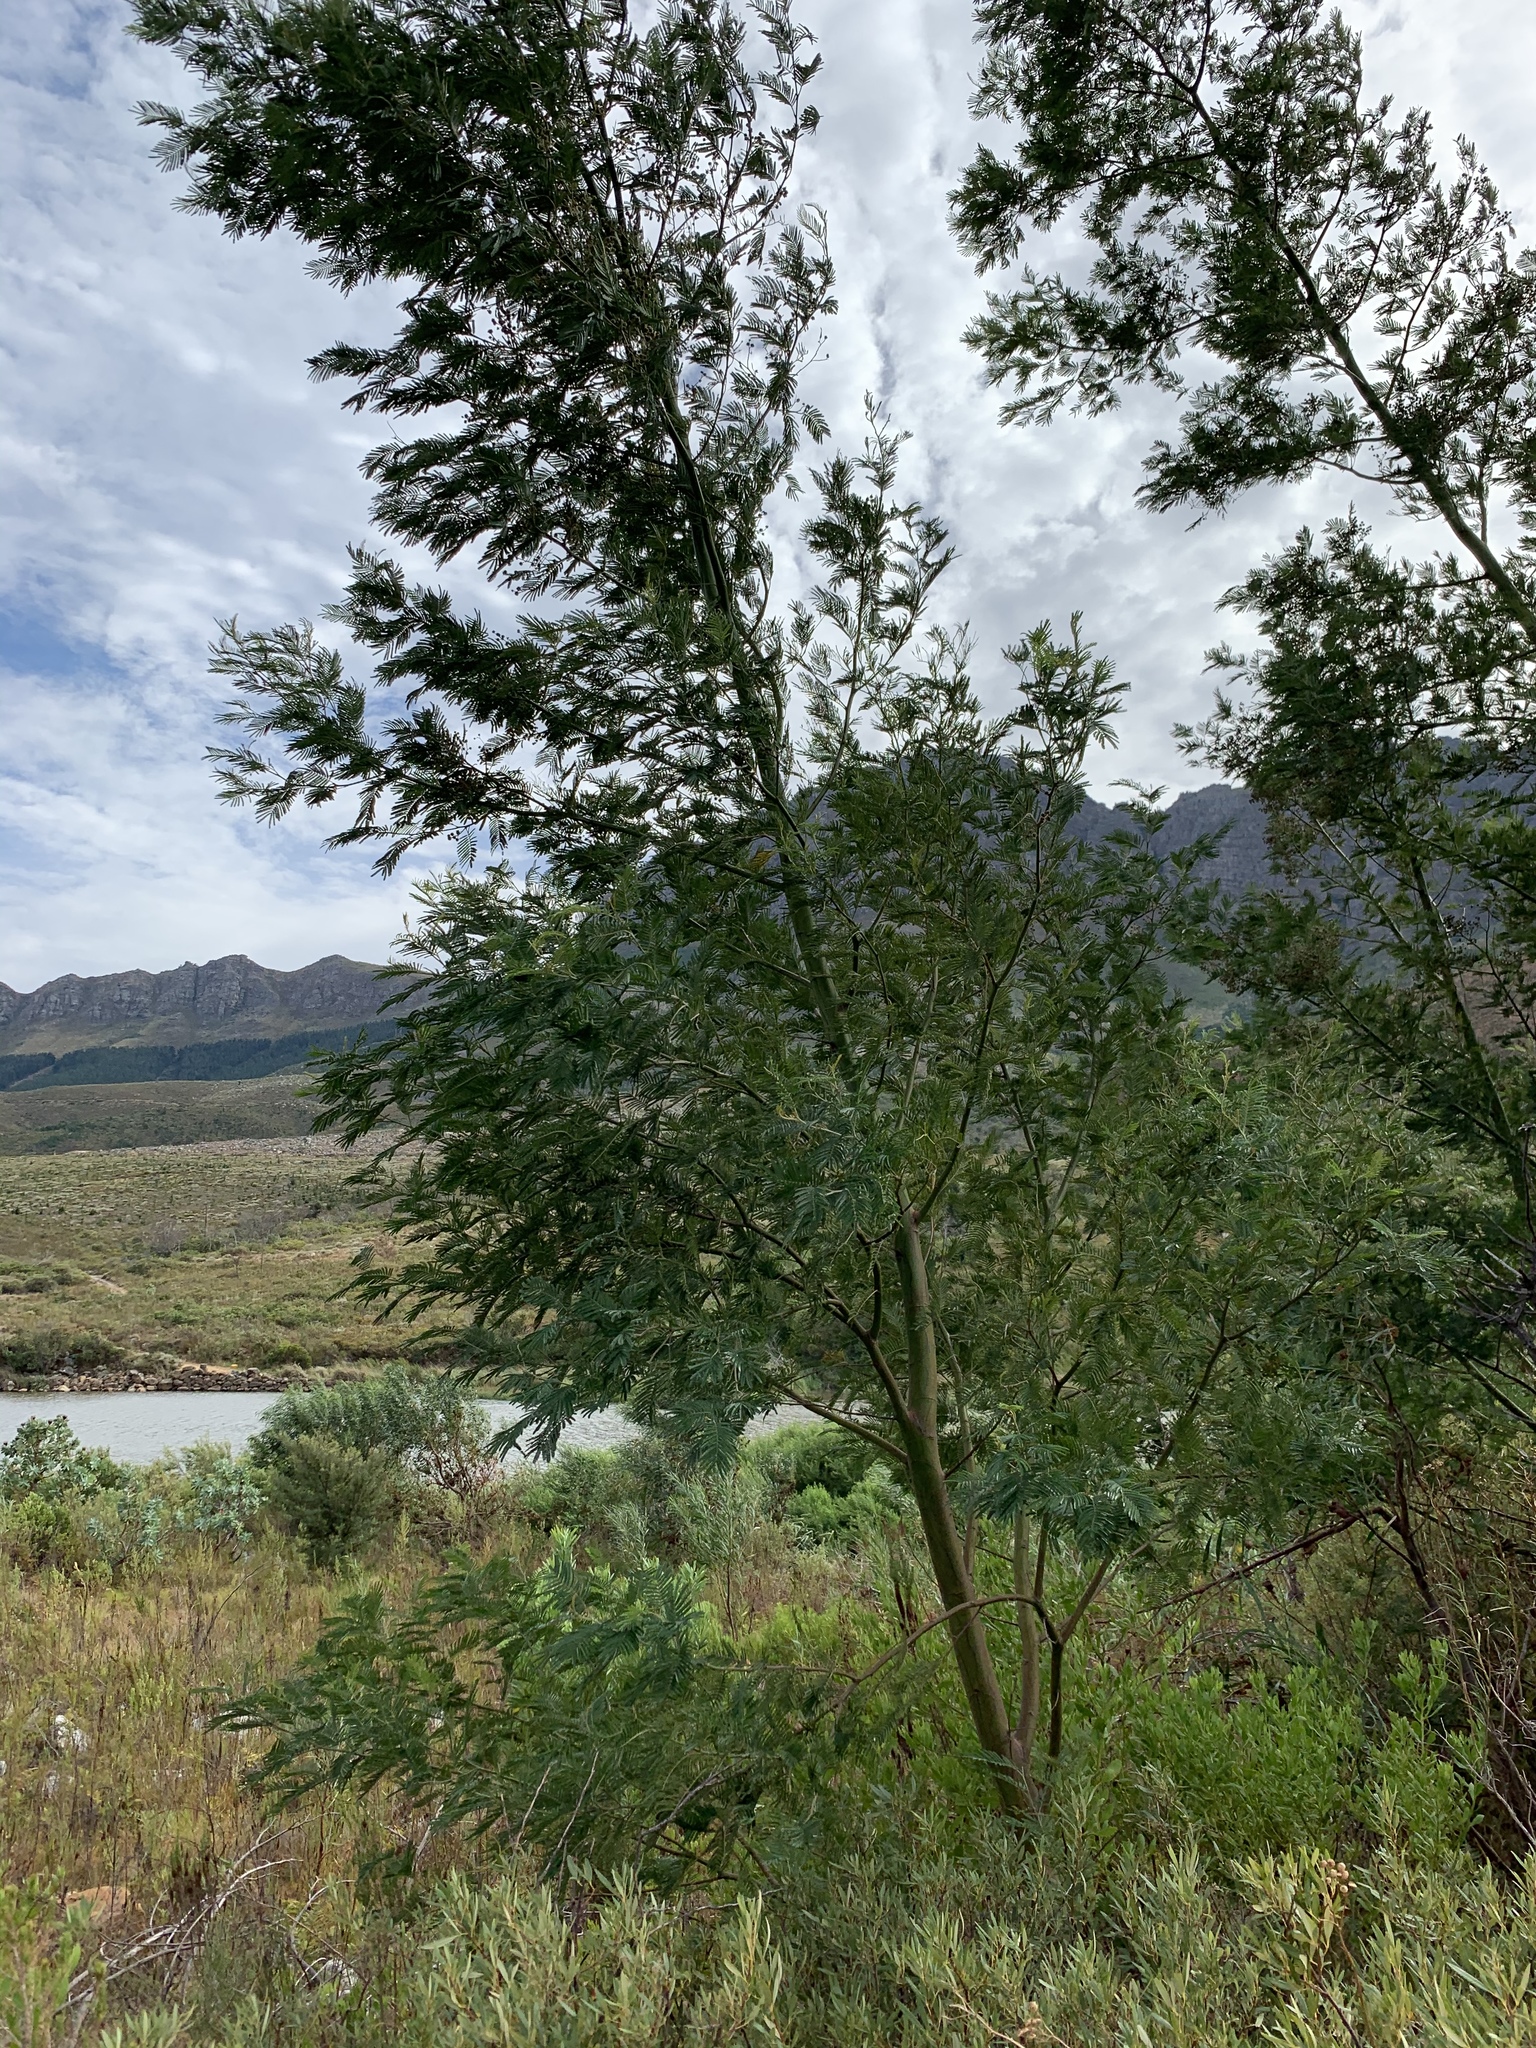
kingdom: Plantae
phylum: Tracheophyta
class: Magnoliopsida
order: Fabales
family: Fabaceae
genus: Acacia
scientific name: Acacia mearnsii
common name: Black wattle
